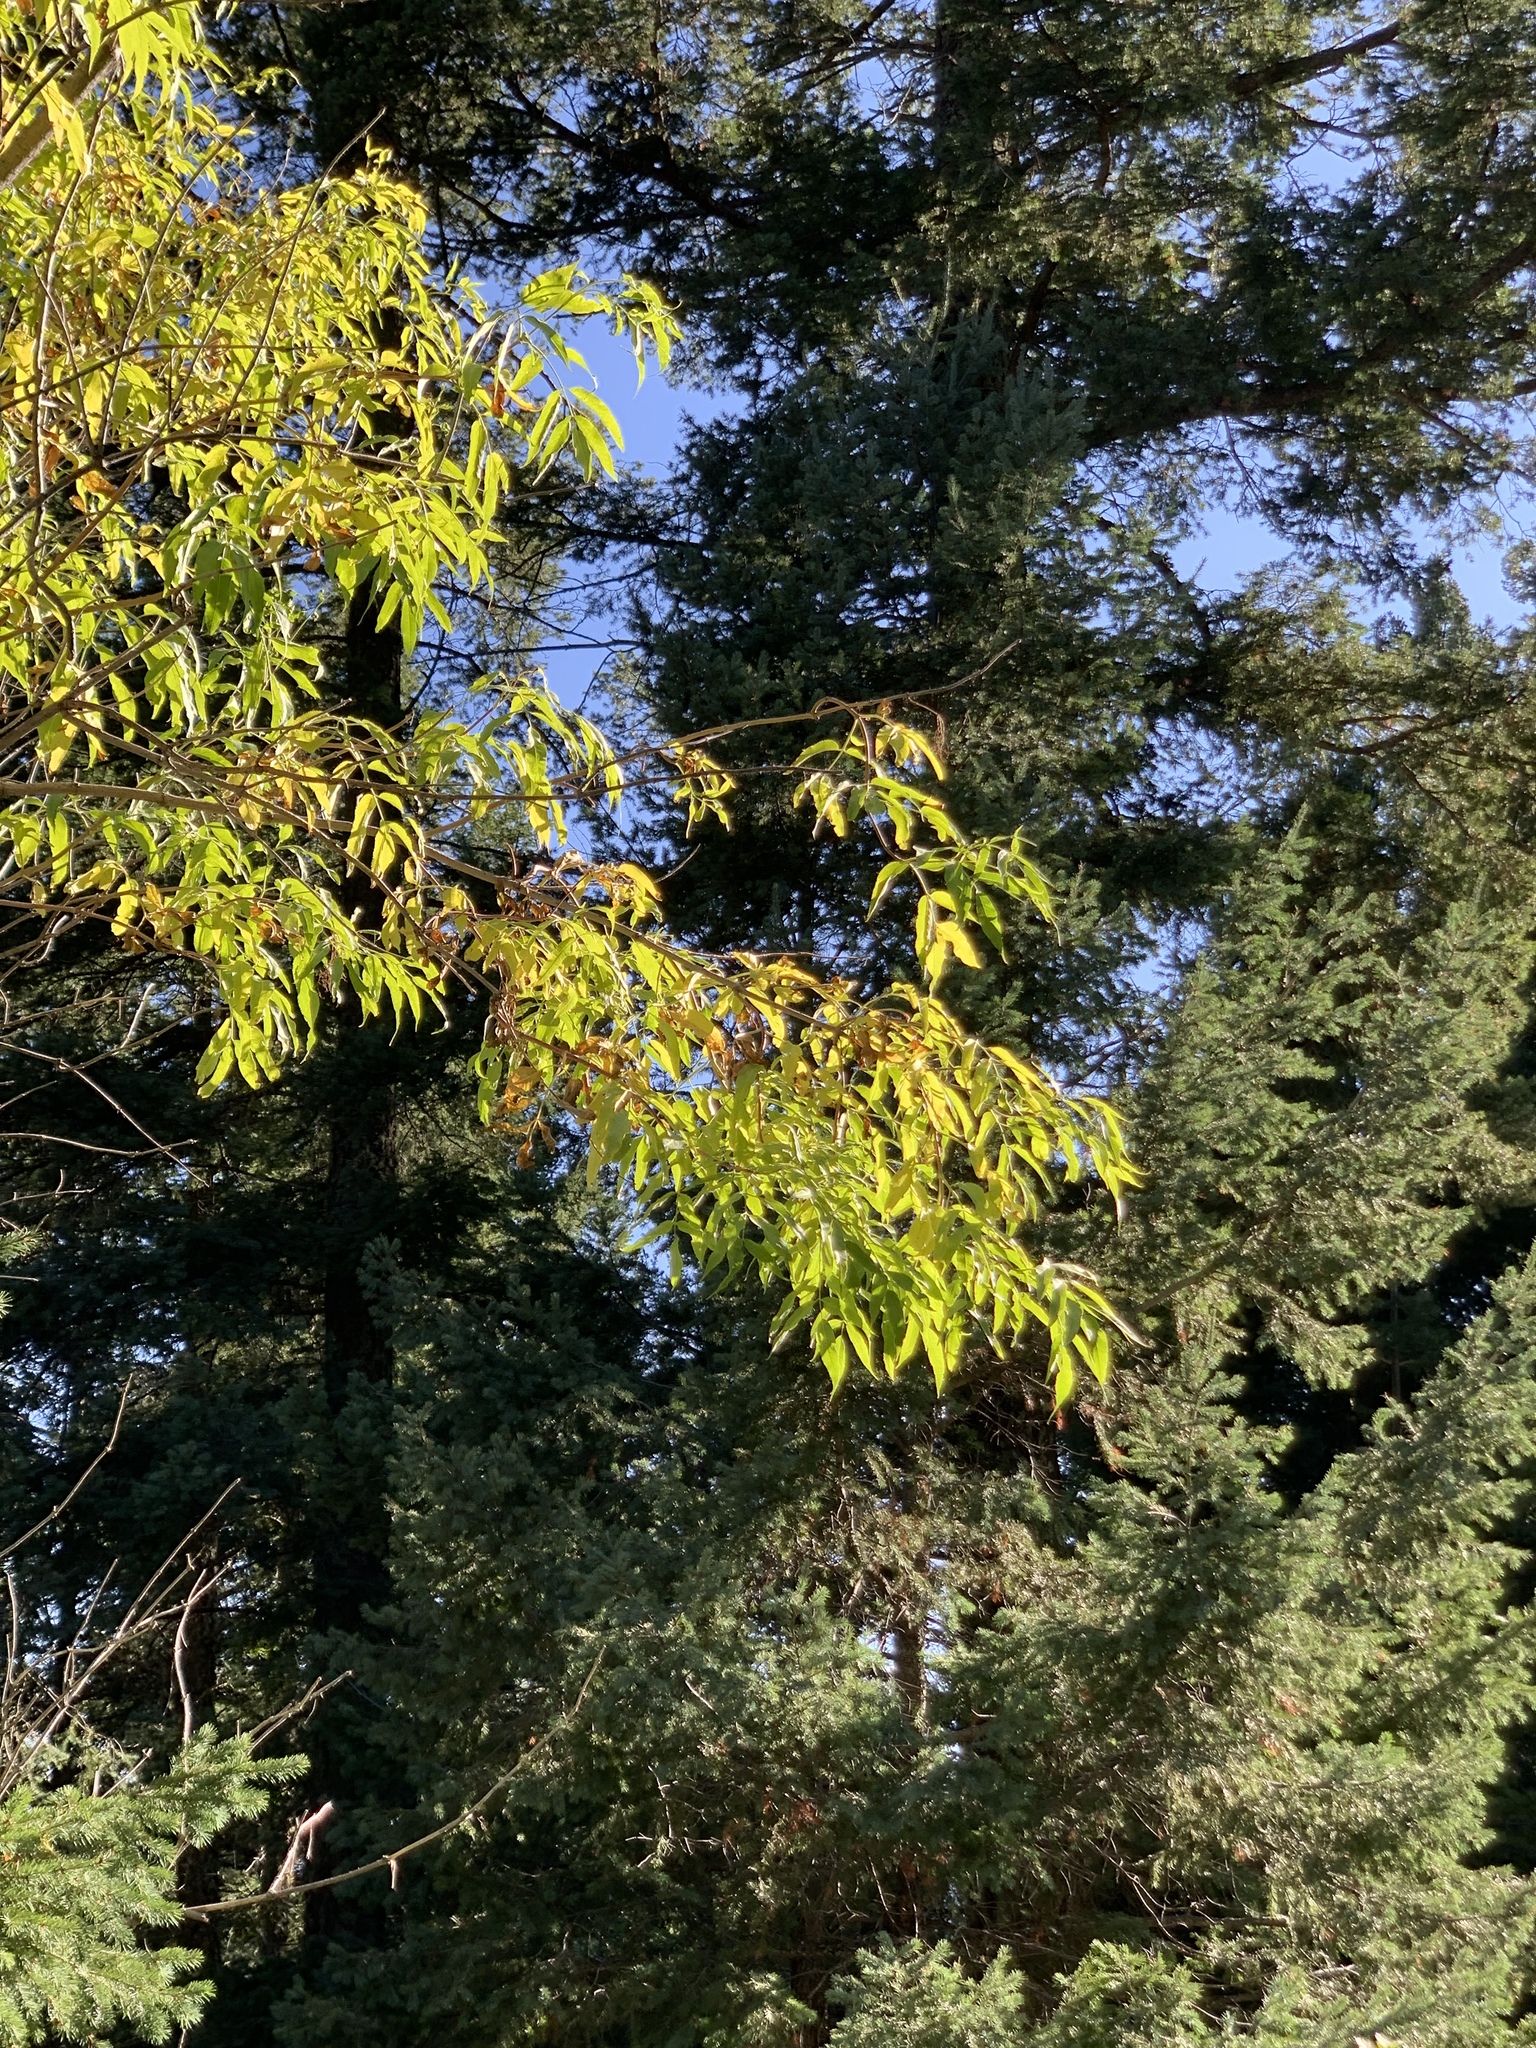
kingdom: Plantae
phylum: Tracheophyta
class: Magnoliopsida
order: Dipsacales
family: Viburnaceae
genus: Sambucus
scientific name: Sambucus cerulea
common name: Blue elder
